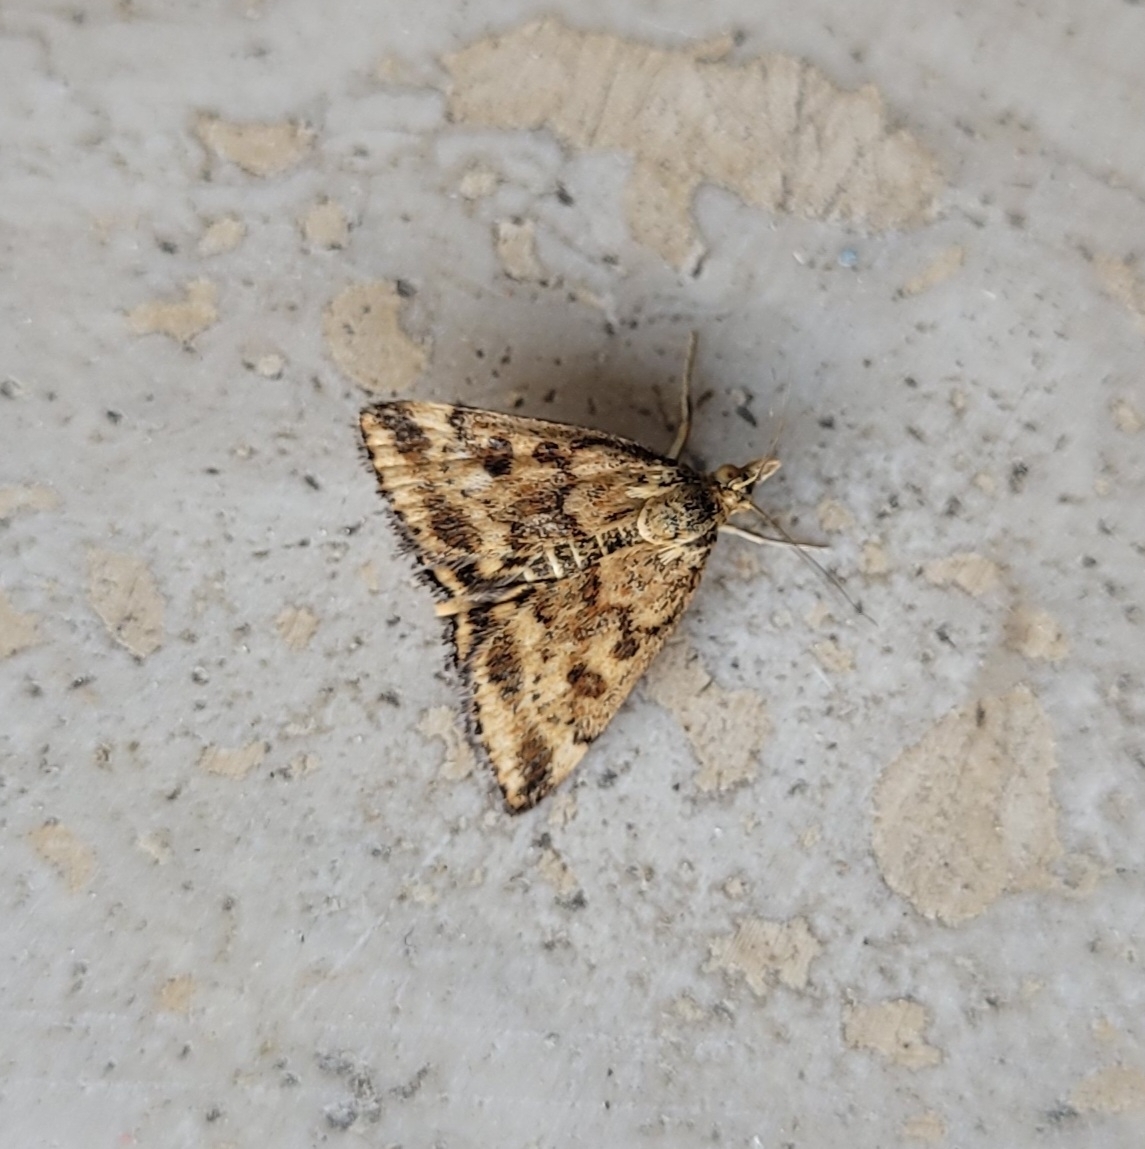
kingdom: Animalia
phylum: Arthropoda
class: Insecta
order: Lepidoptera
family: Crambidae
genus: Pyrausta
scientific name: Pyrausta despicata
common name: Straw-barred pearl
